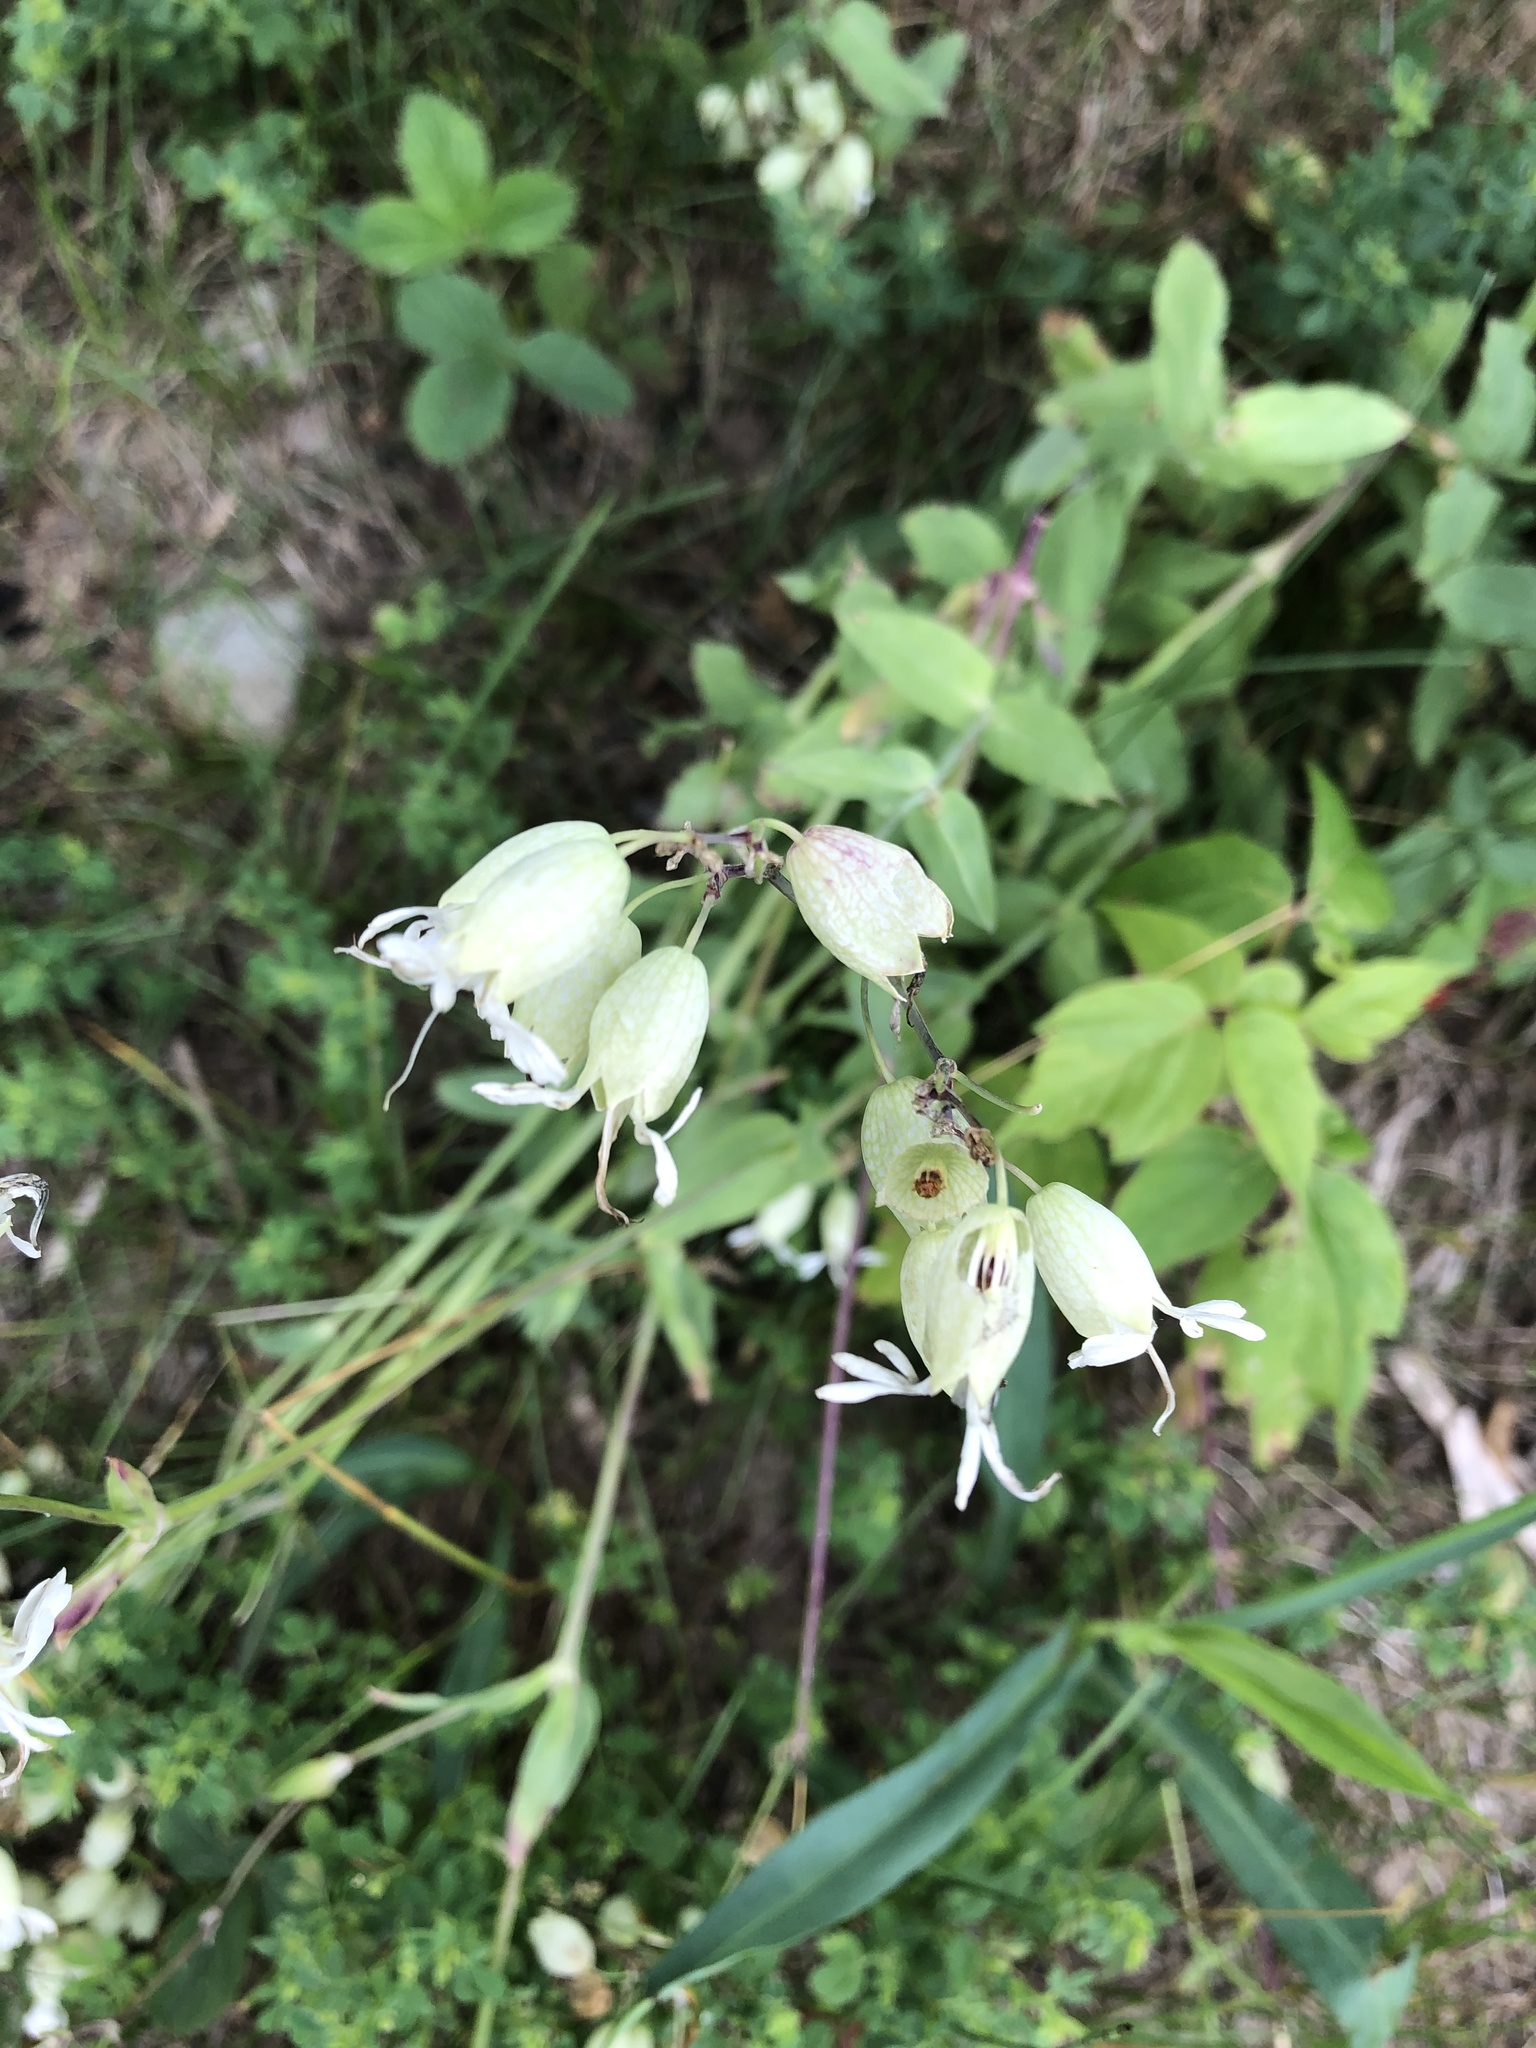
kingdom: Plantae
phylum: Tracheophyta
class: Magnoliopsida
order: Caryophyllales
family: Caryophyllaceae
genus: Silene
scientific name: Silene vulgaris
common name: Bladder campion
